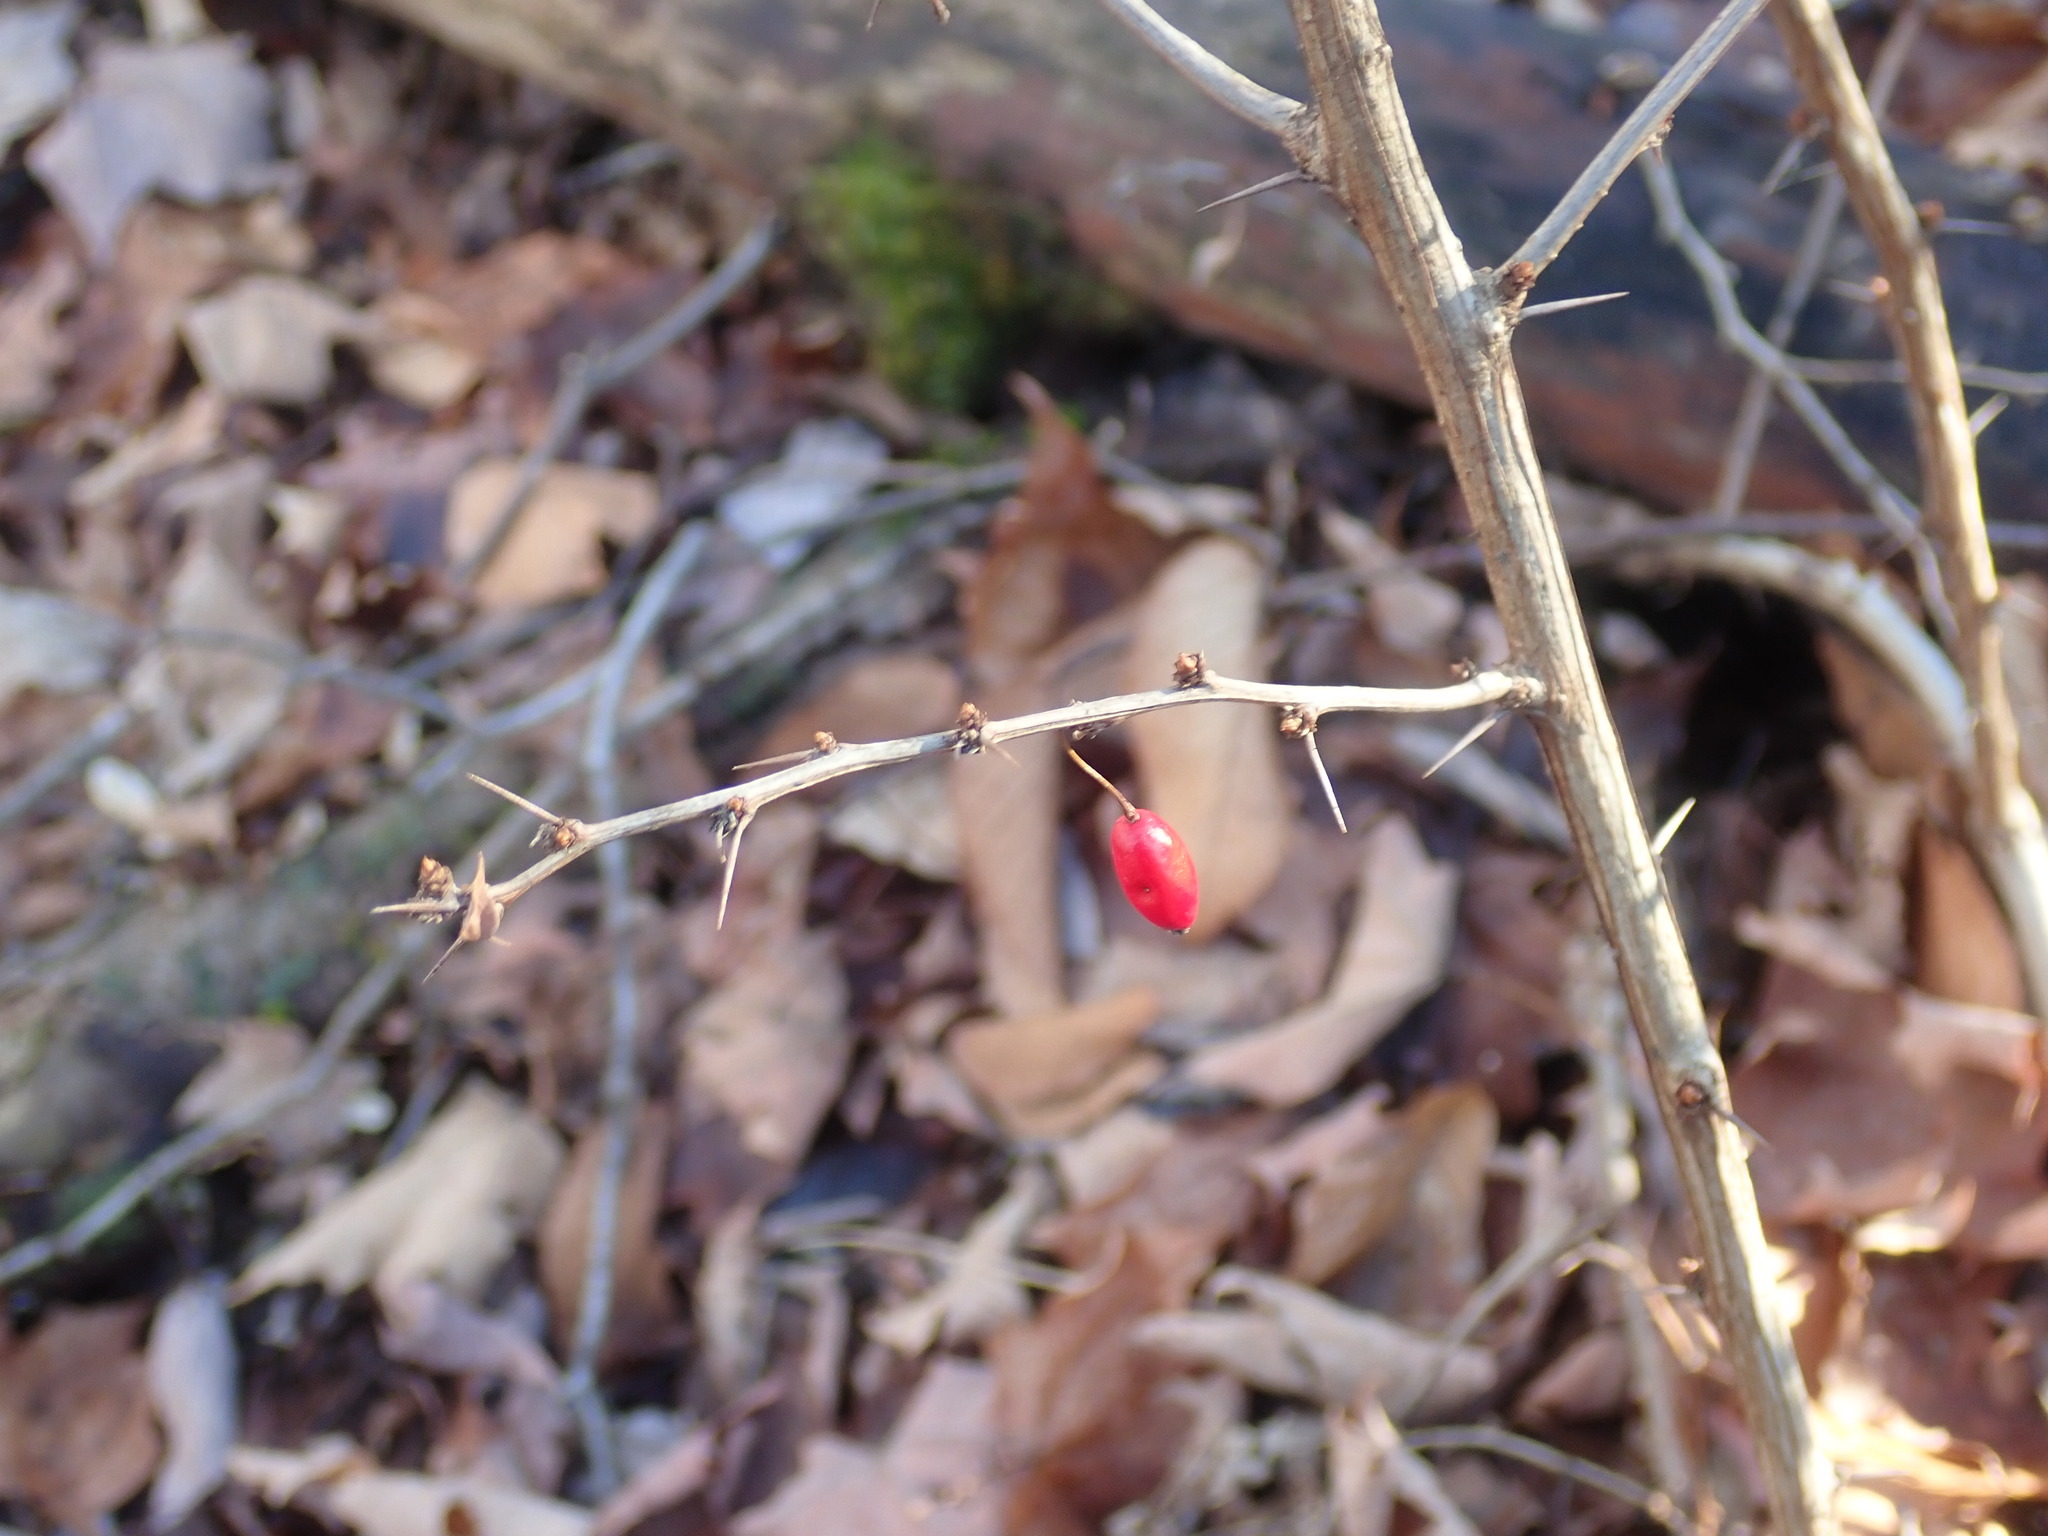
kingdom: Plantae
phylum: Tracheophyta
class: Magnoliopsida
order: Ranunculales
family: Berberidaceae
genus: Berberis
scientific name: Berberis thunbergii
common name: Japanese barberry
